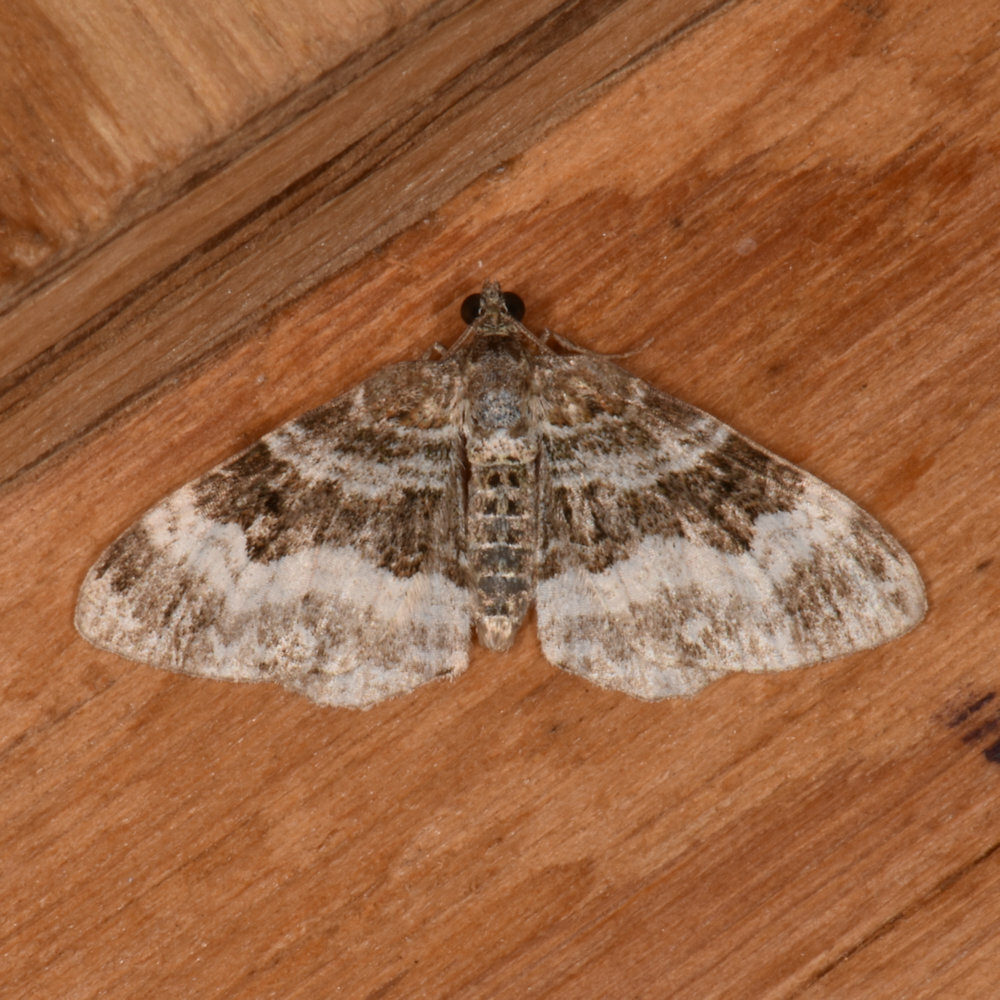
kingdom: Animalia
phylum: Arthropoda
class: Insecta
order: Lepidoptera
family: Geometridae
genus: Epirrhoe
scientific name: Epirrhoe alternata
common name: Common carpet
